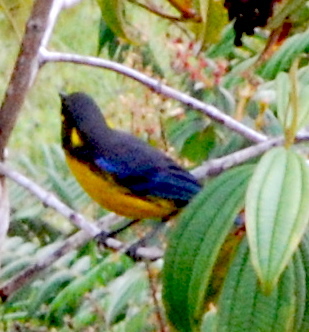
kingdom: Animalia
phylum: Chordata
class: Aves
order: Passeriformes
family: Thraupidae
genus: Anisognathus
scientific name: Anisognathus lacrymosus
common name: Lacrimose mountain-tanager
